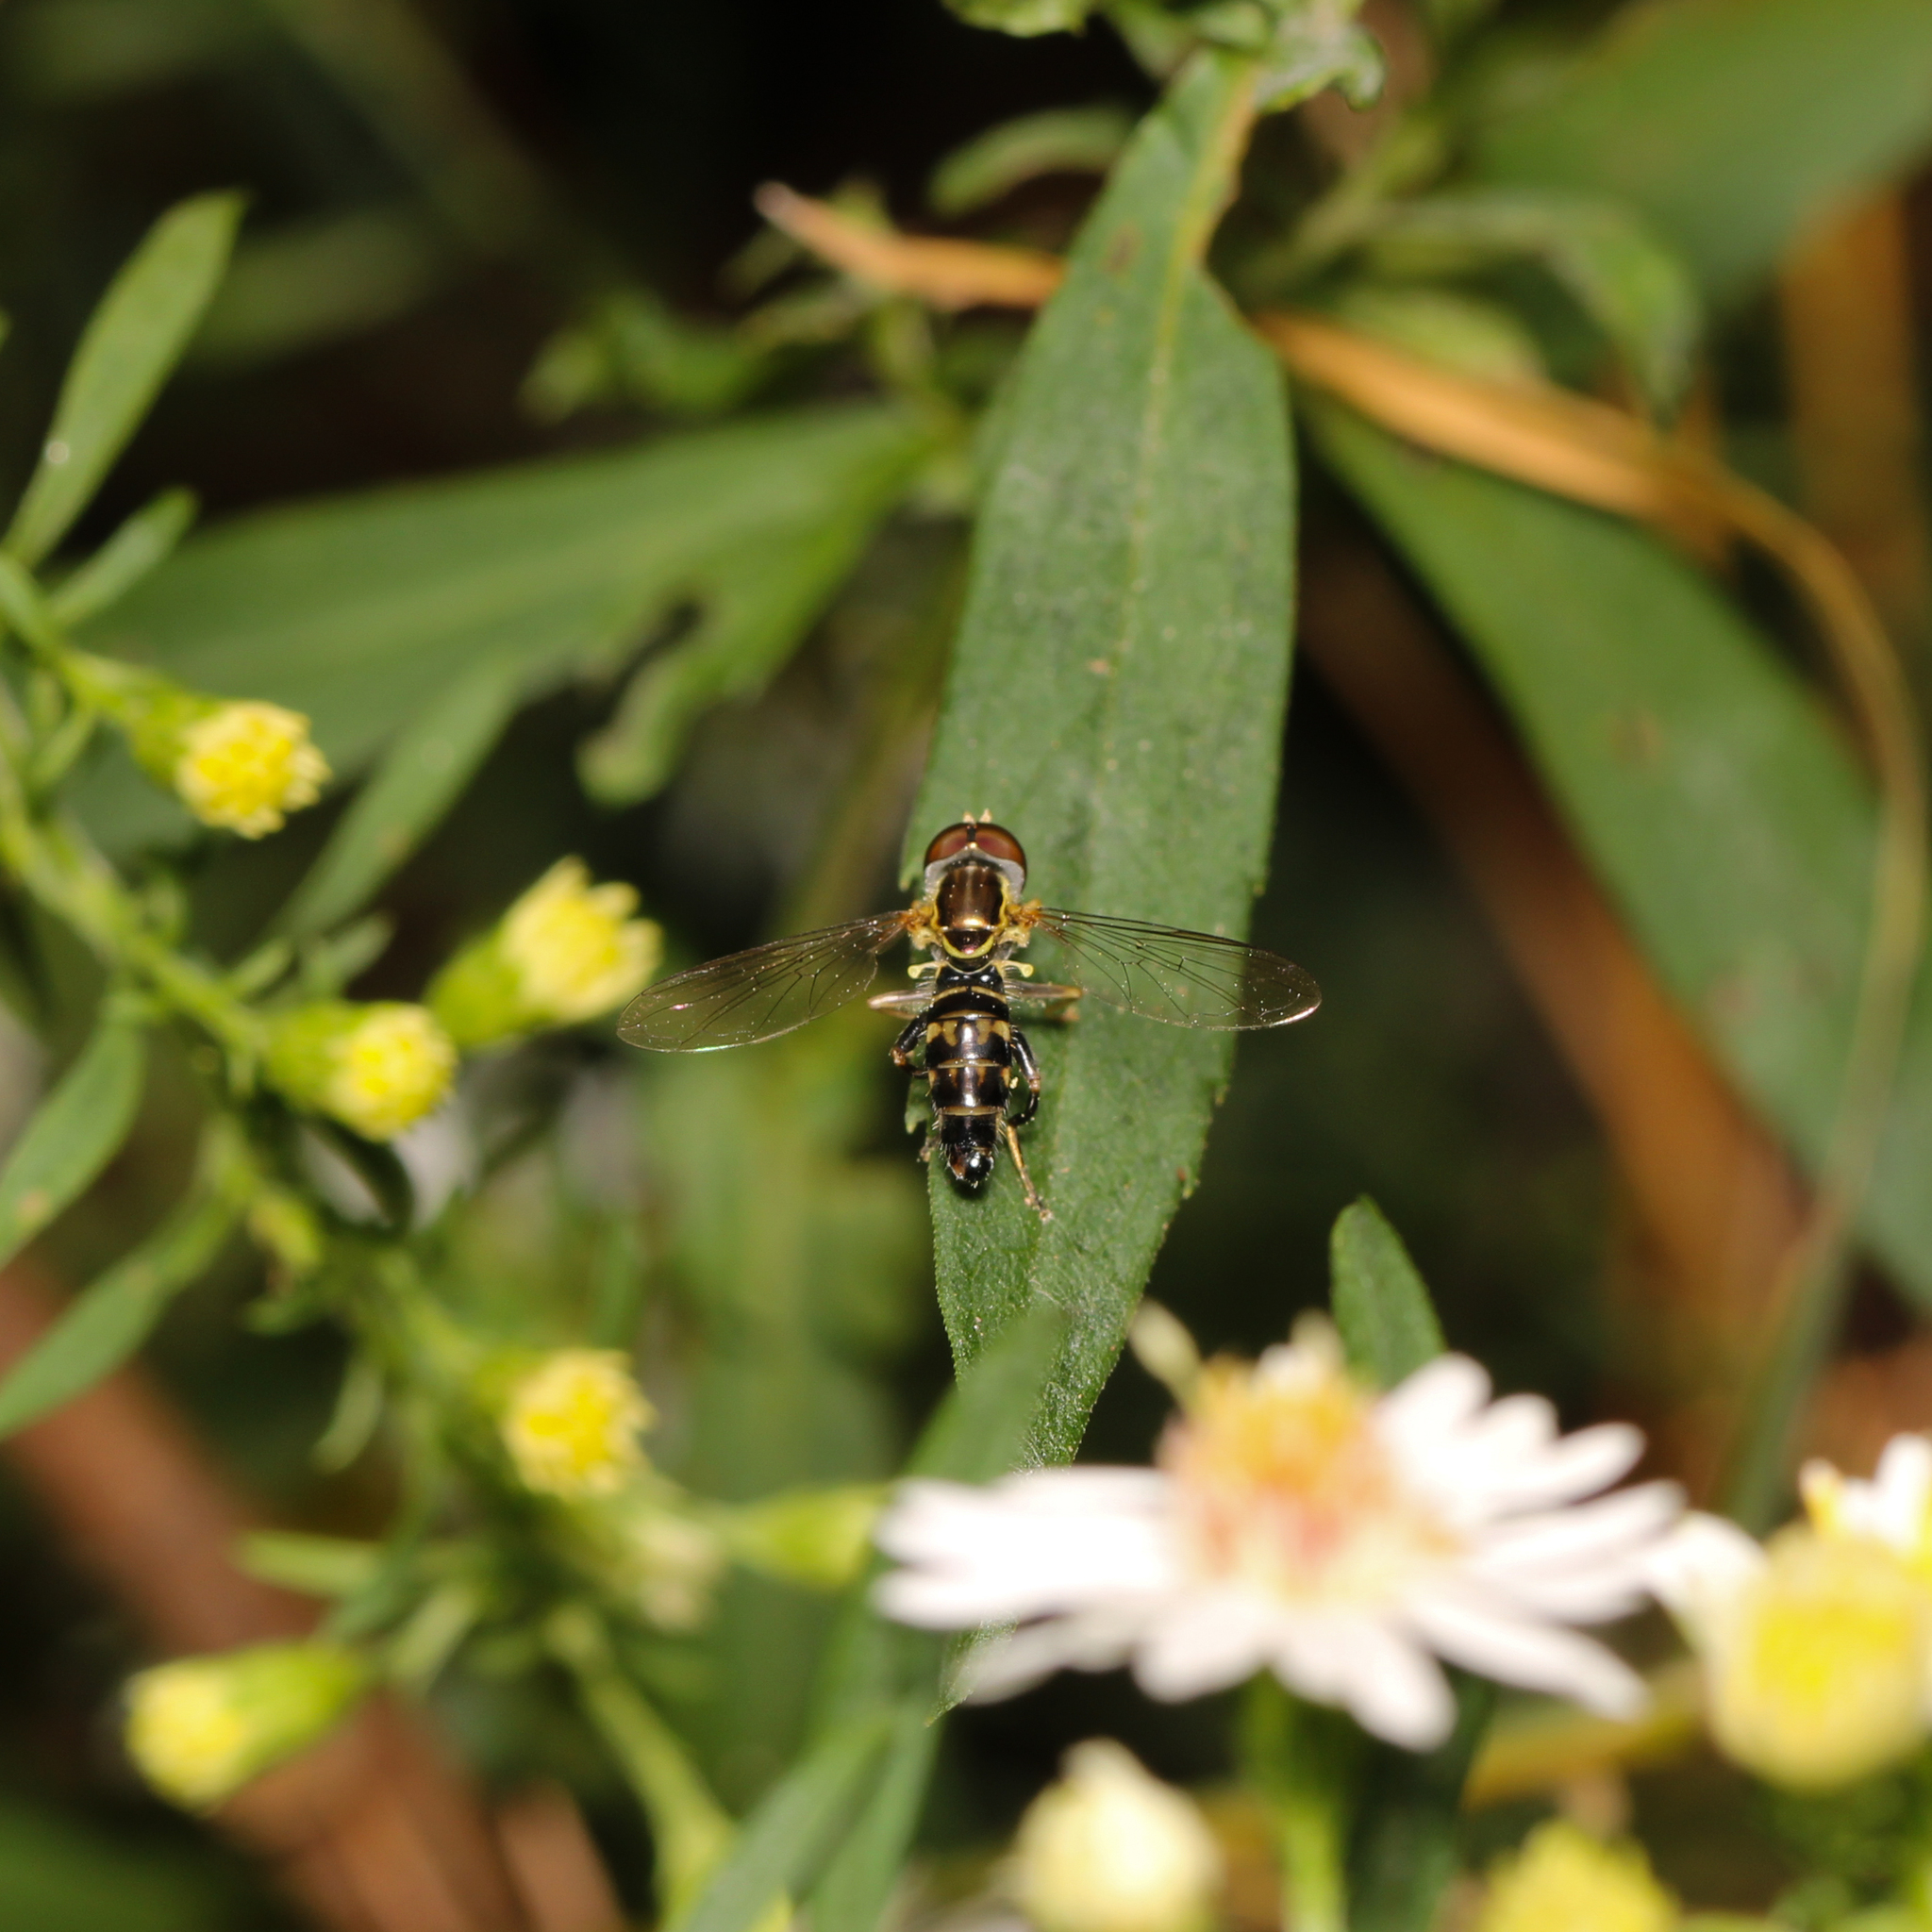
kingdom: Animalia
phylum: Arthropoda
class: Insecta
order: Diptera
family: Syrphidae
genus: Toxomerus
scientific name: Toxomerus geminatus
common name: Eastern calligrapher
